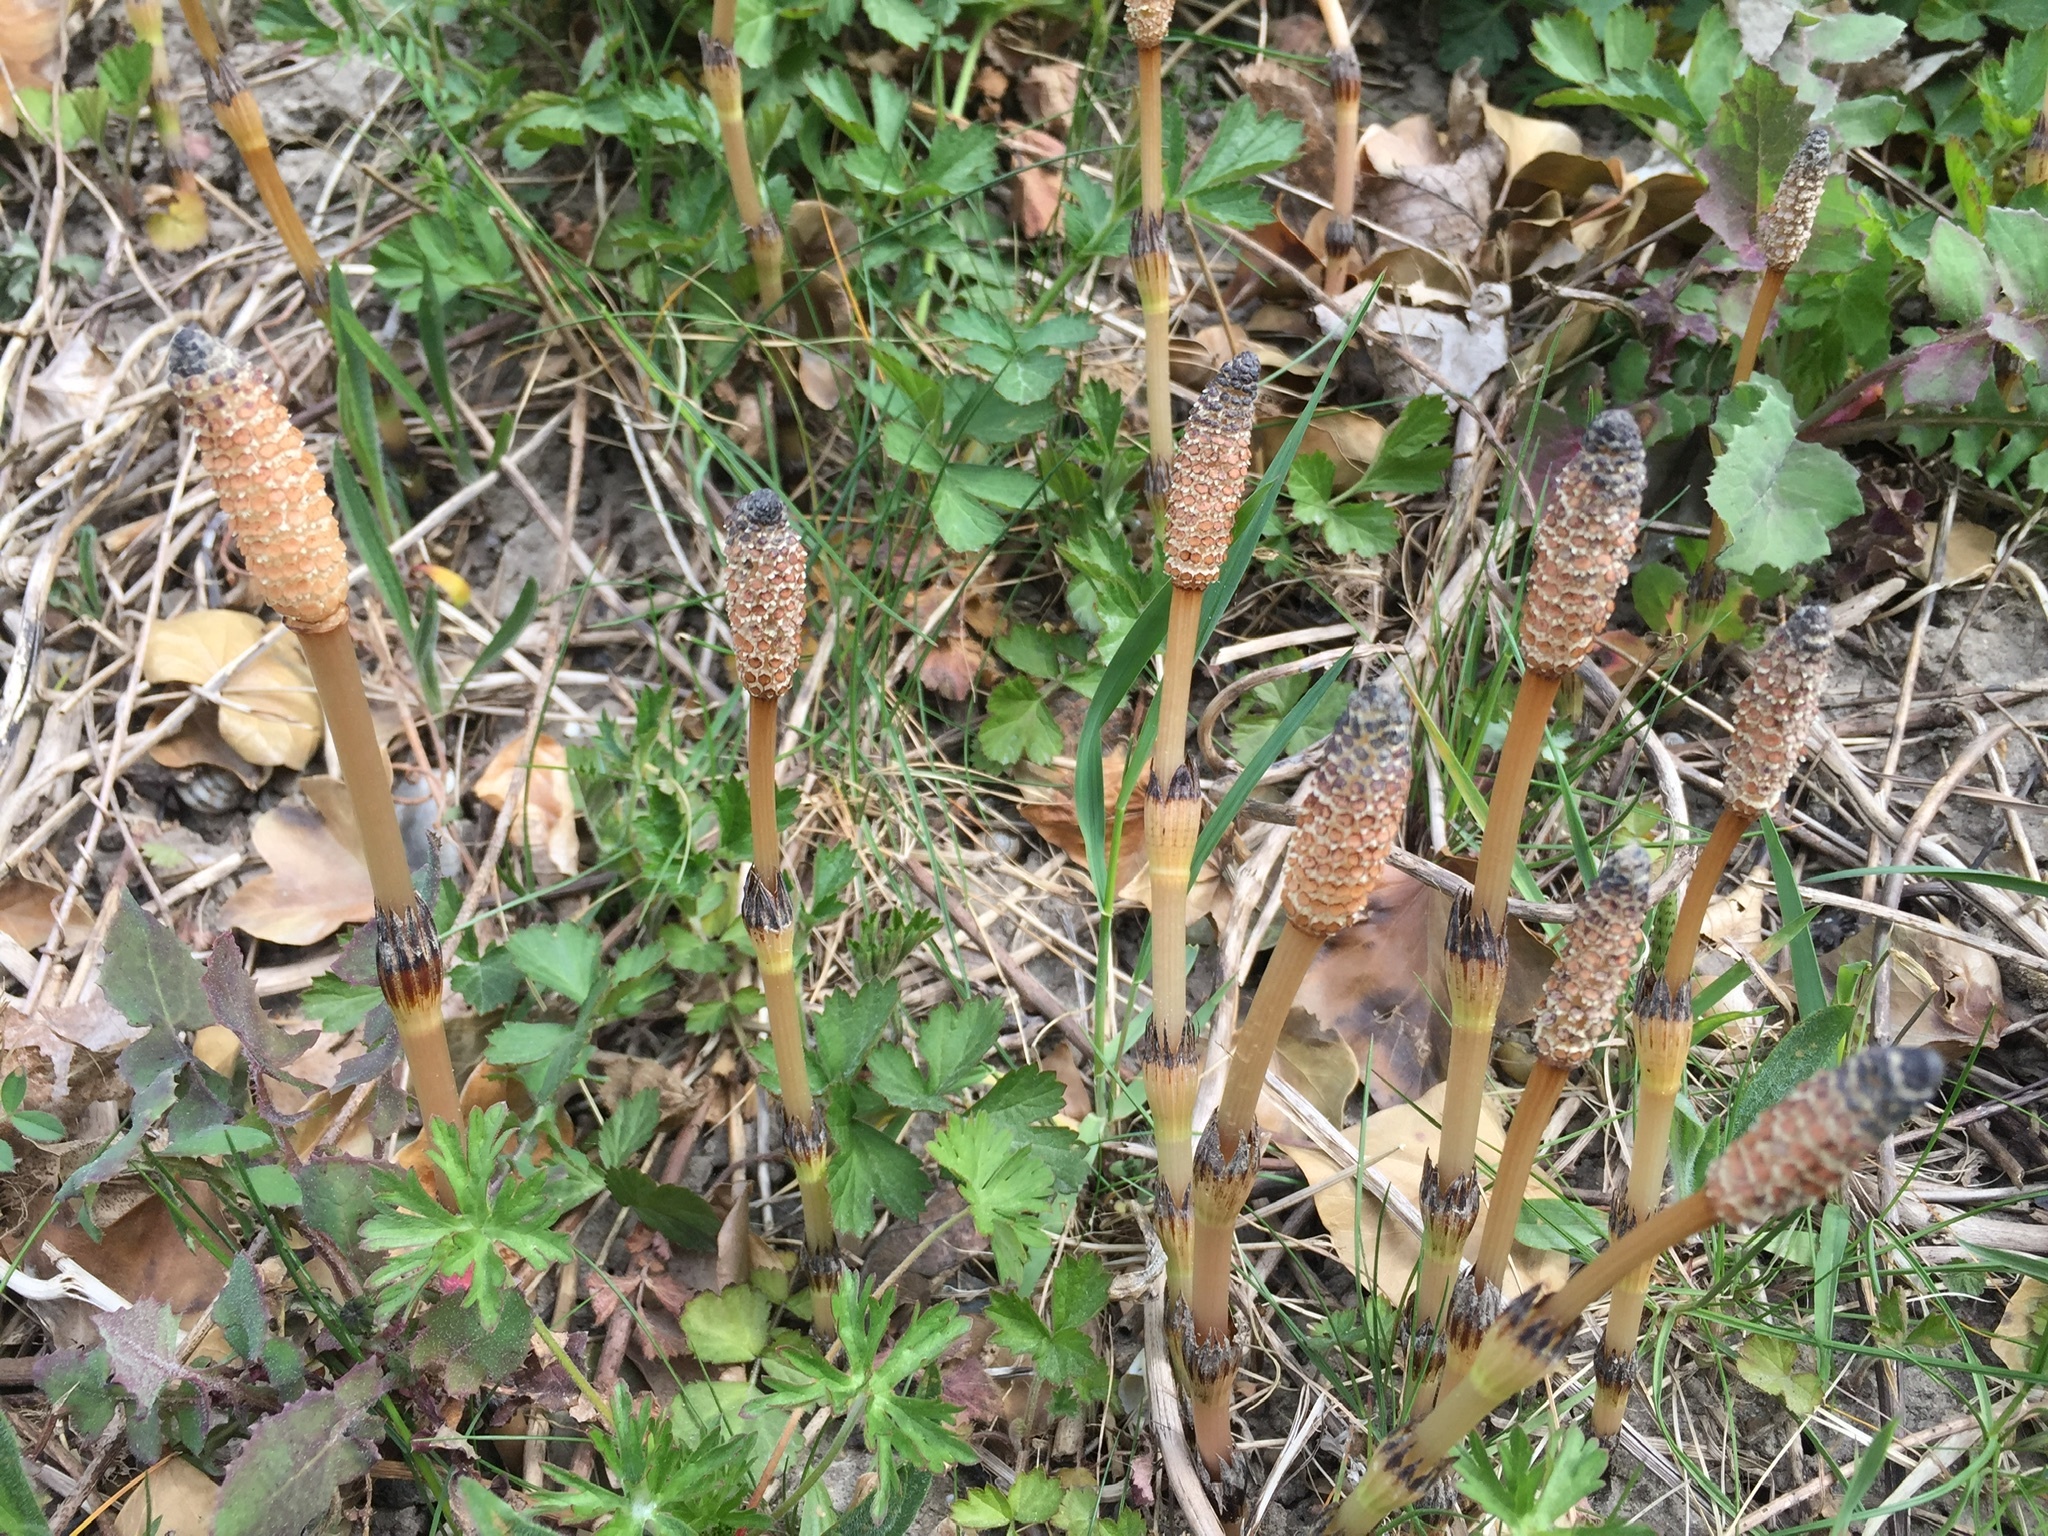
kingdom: Plantae
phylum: Tracheophyta
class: Polypodiopsida
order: Equisetales
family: Equisetaceae
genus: Equisetum
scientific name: Equisetum arvense
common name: Field horsetail
